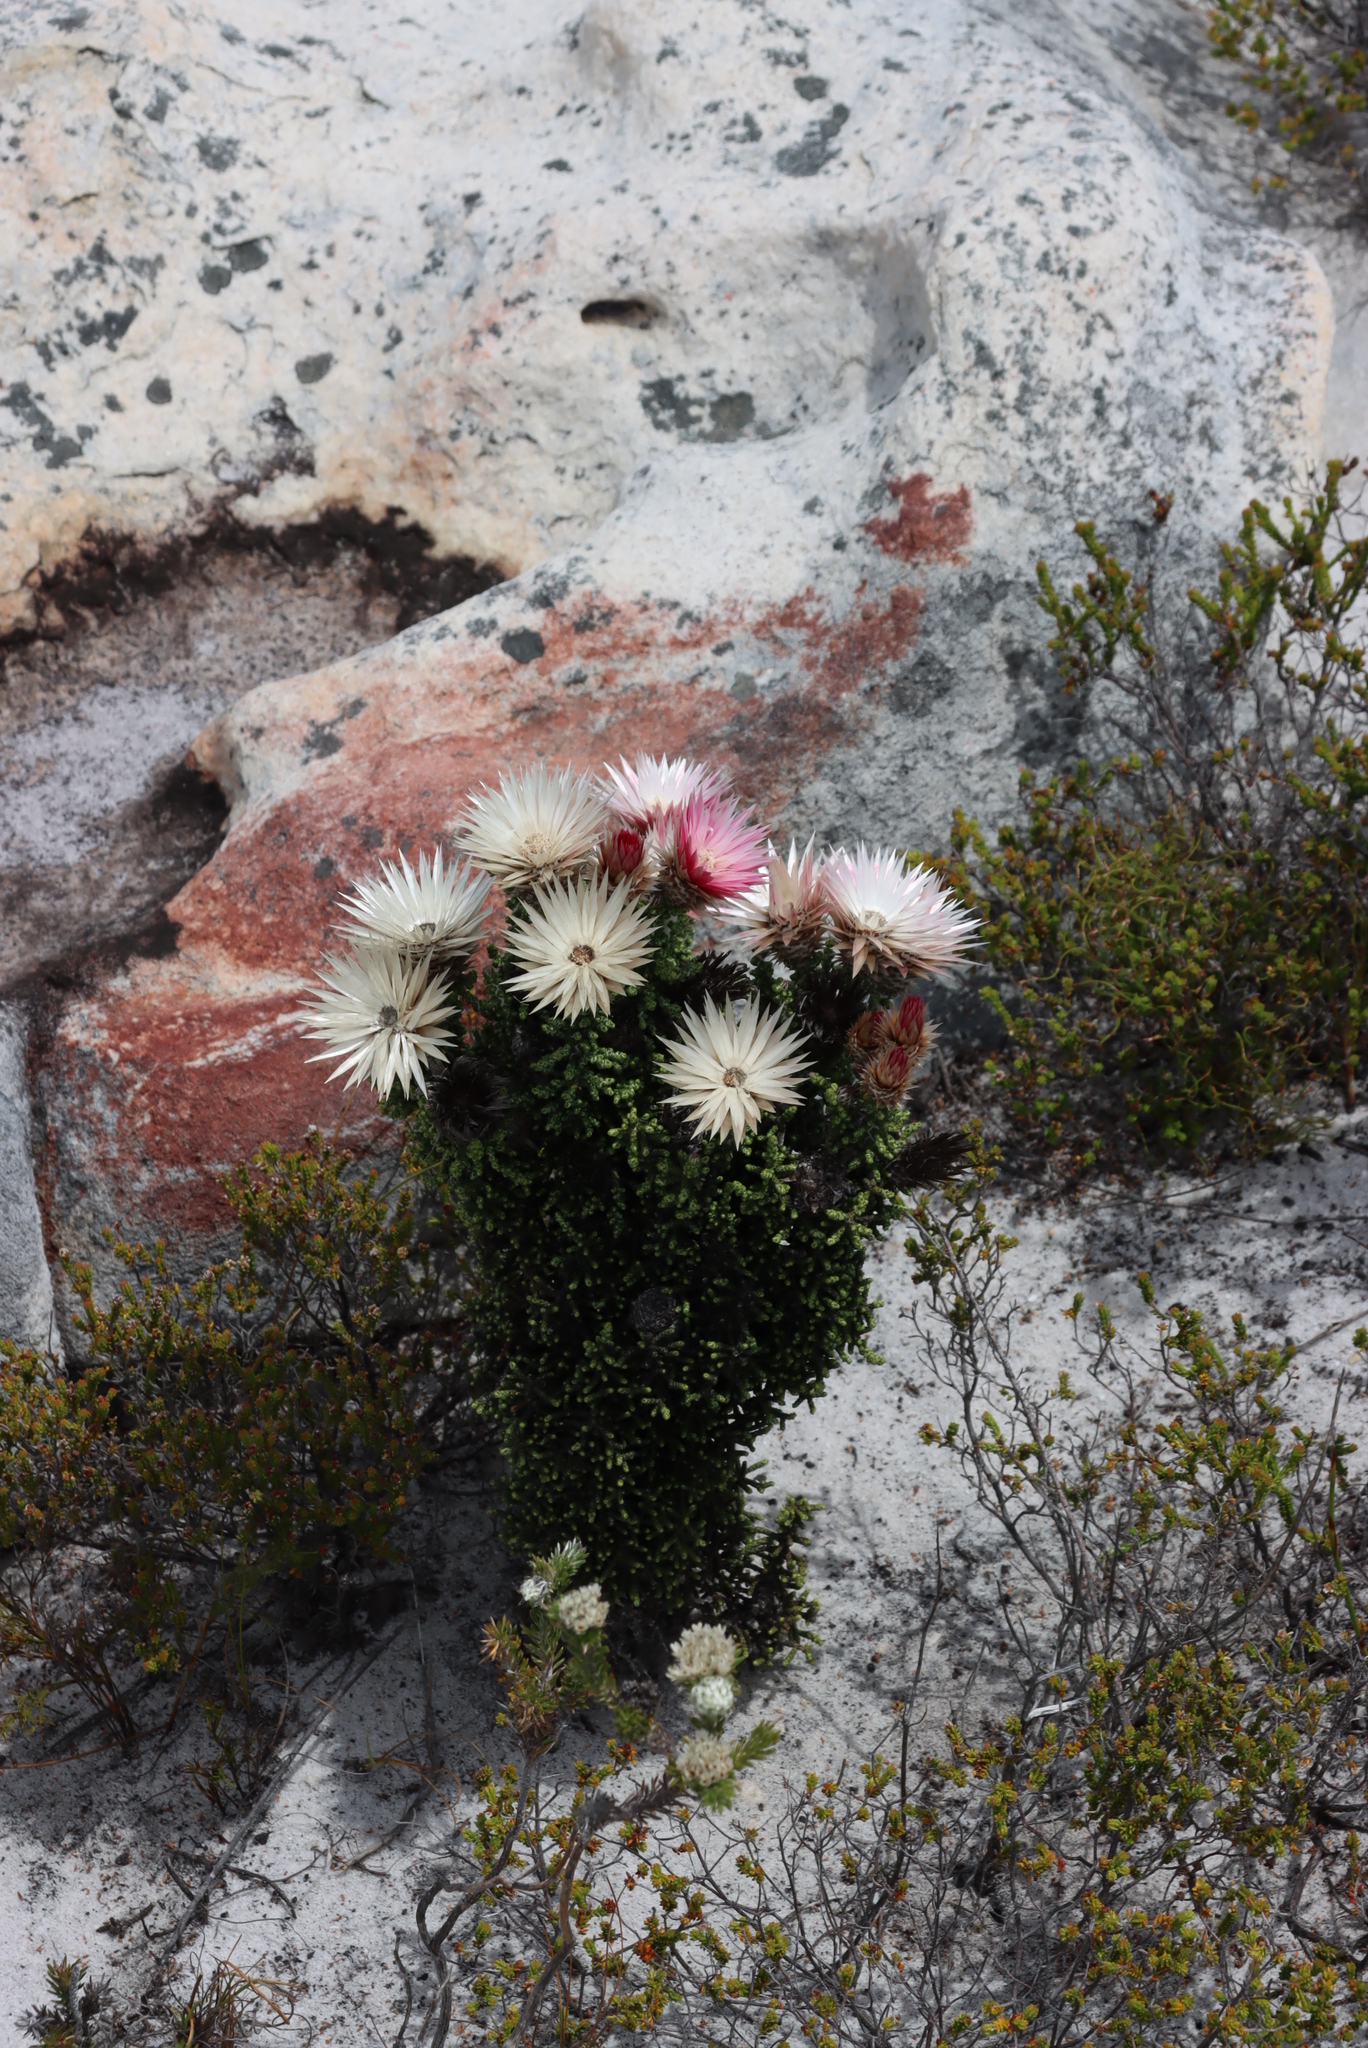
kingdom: Plantae
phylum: Tracheophyta
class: Magnoliopsida
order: Asterales
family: Asteraceae
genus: Phaenocoma
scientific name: Phaenocoma prolifera
